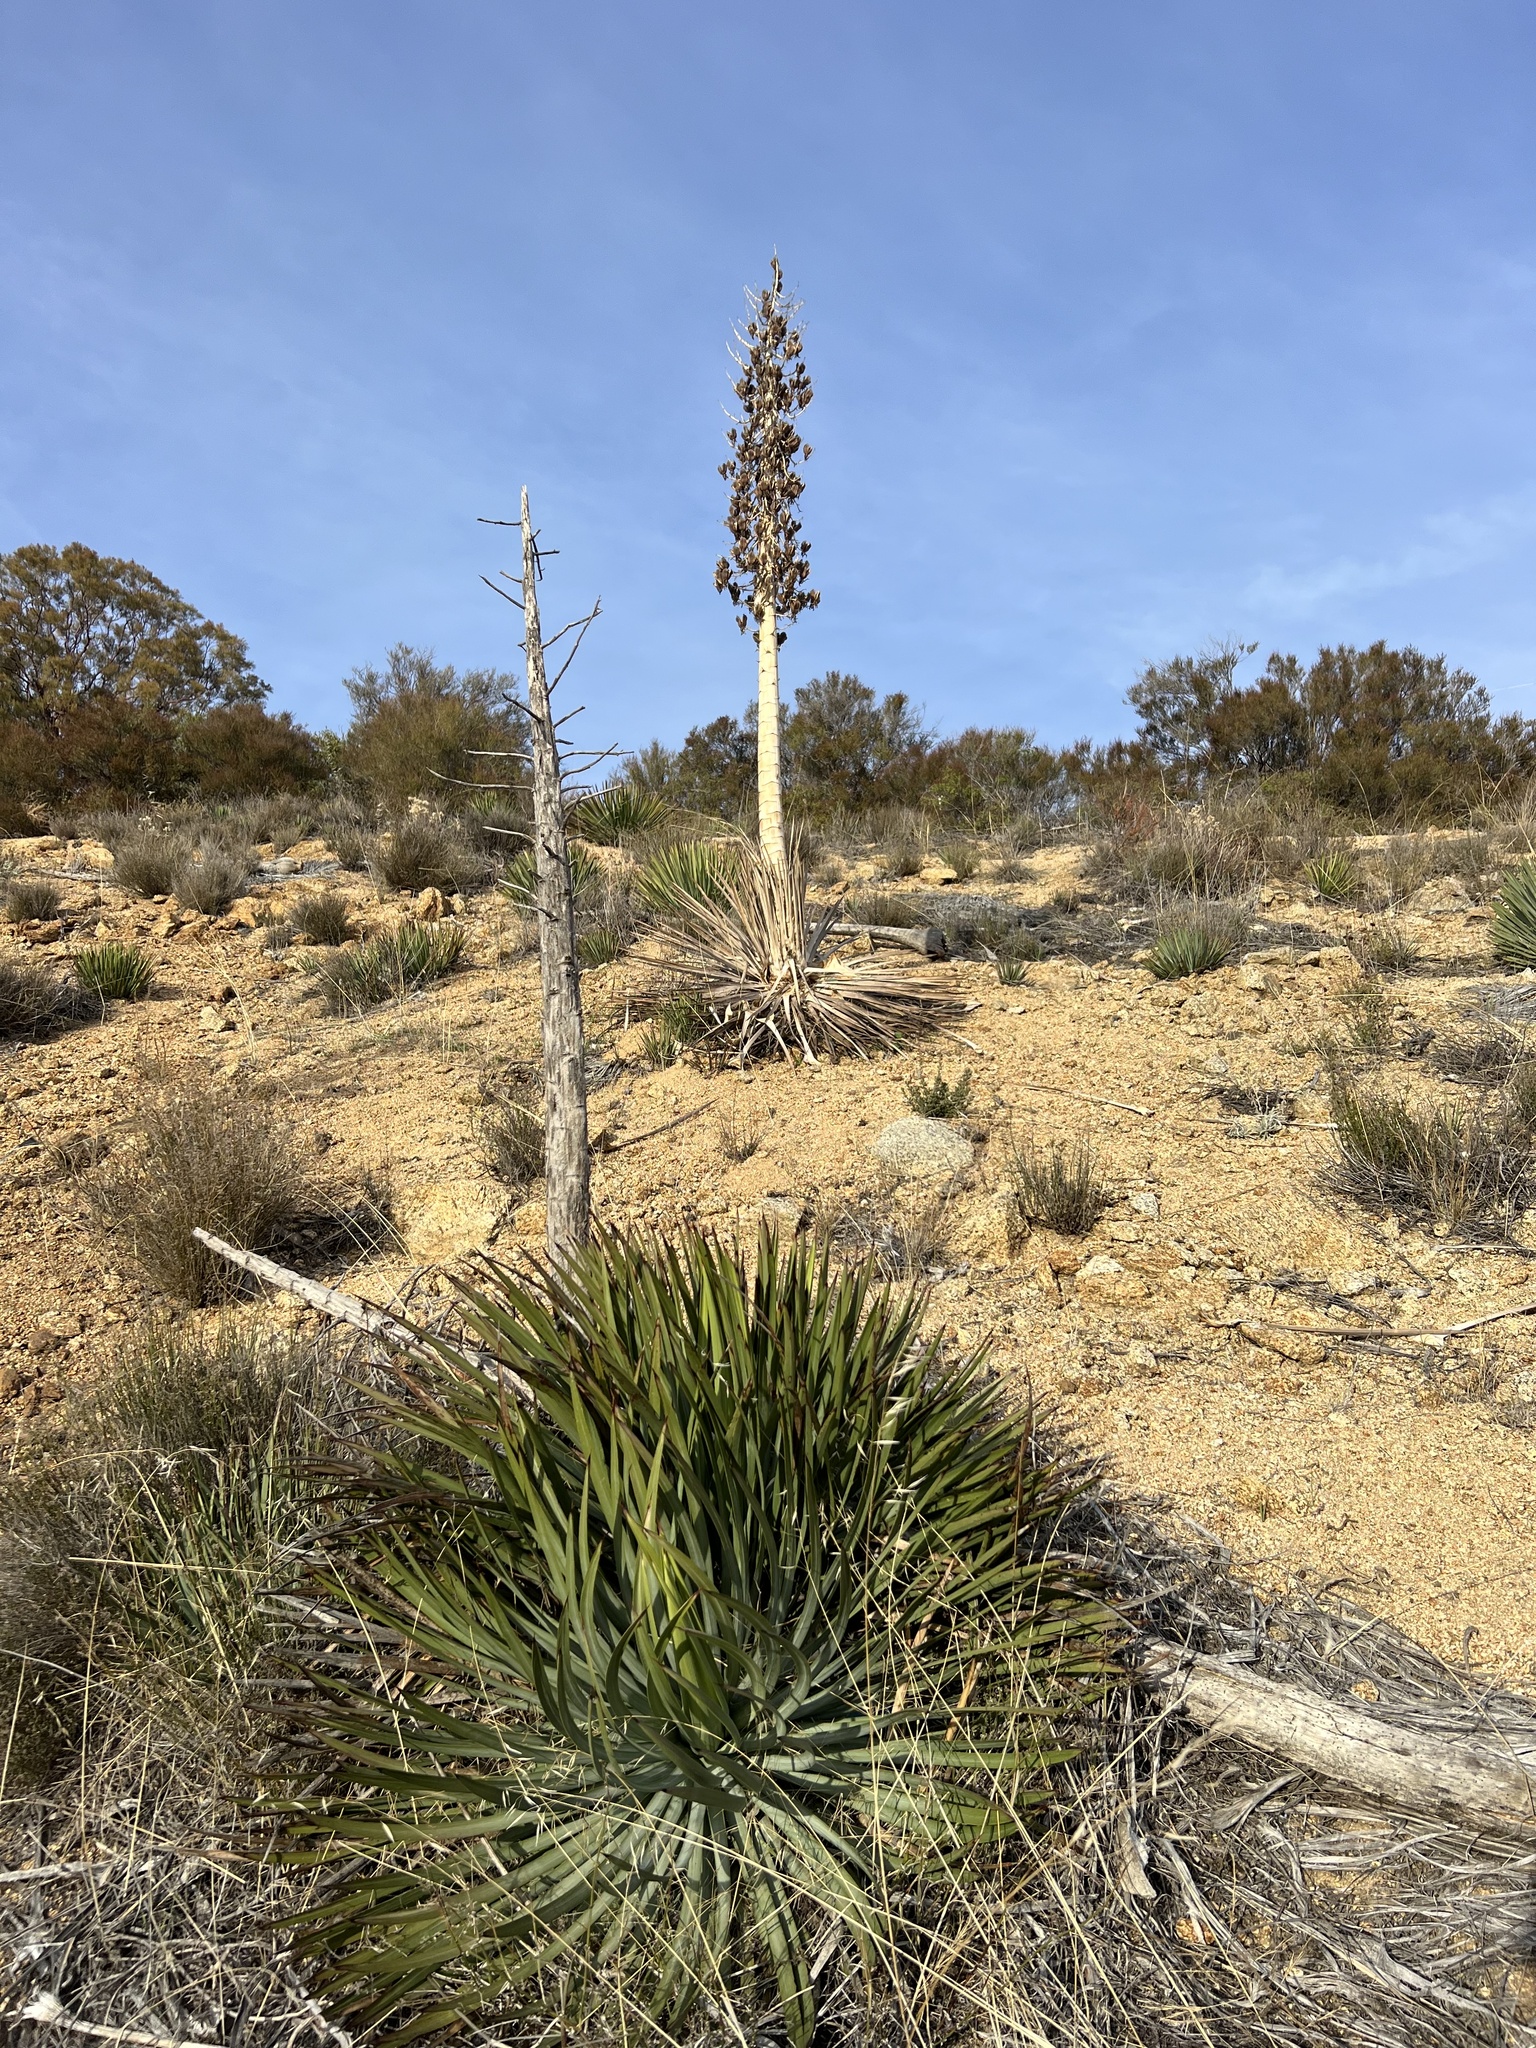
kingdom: Plantae
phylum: Tracheophyta
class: Liliopsida
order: Asparagales
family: Asparagaceae
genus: Hesperoyucca
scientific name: Hesperoyucca whipplei
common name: Our lord's-candle
